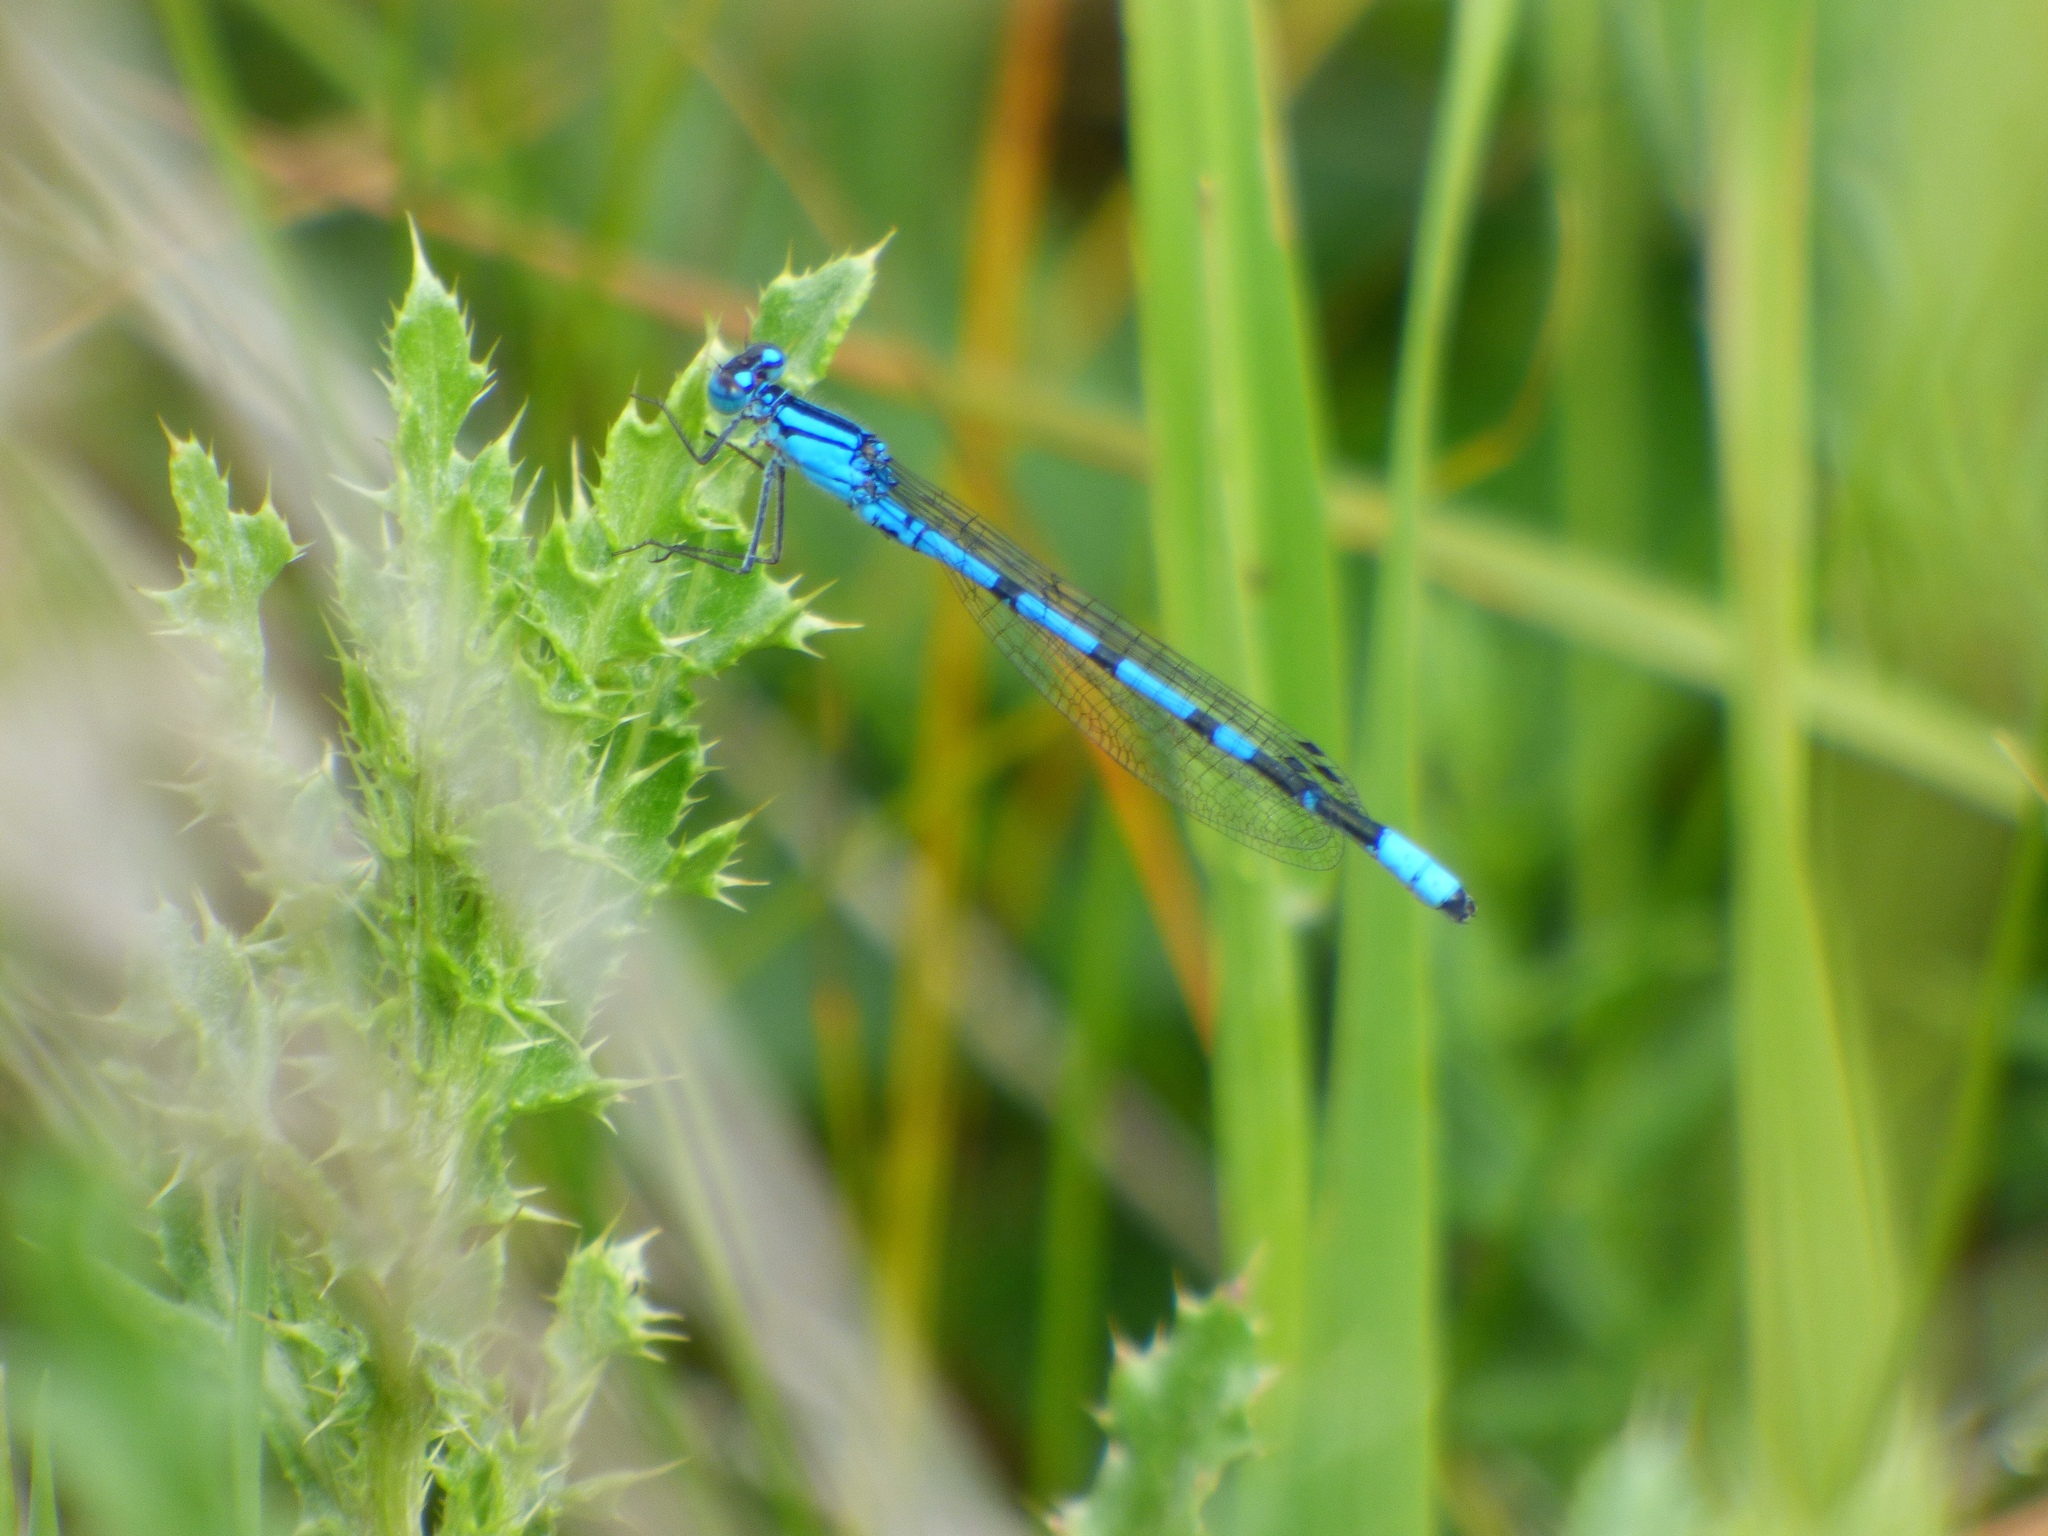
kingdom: Animalia
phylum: Arthropoda
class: Insecta
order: Odonata
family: Coenagrionidae
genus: Enallagma
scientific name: Enallagma boreale
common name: Boreal bluet
